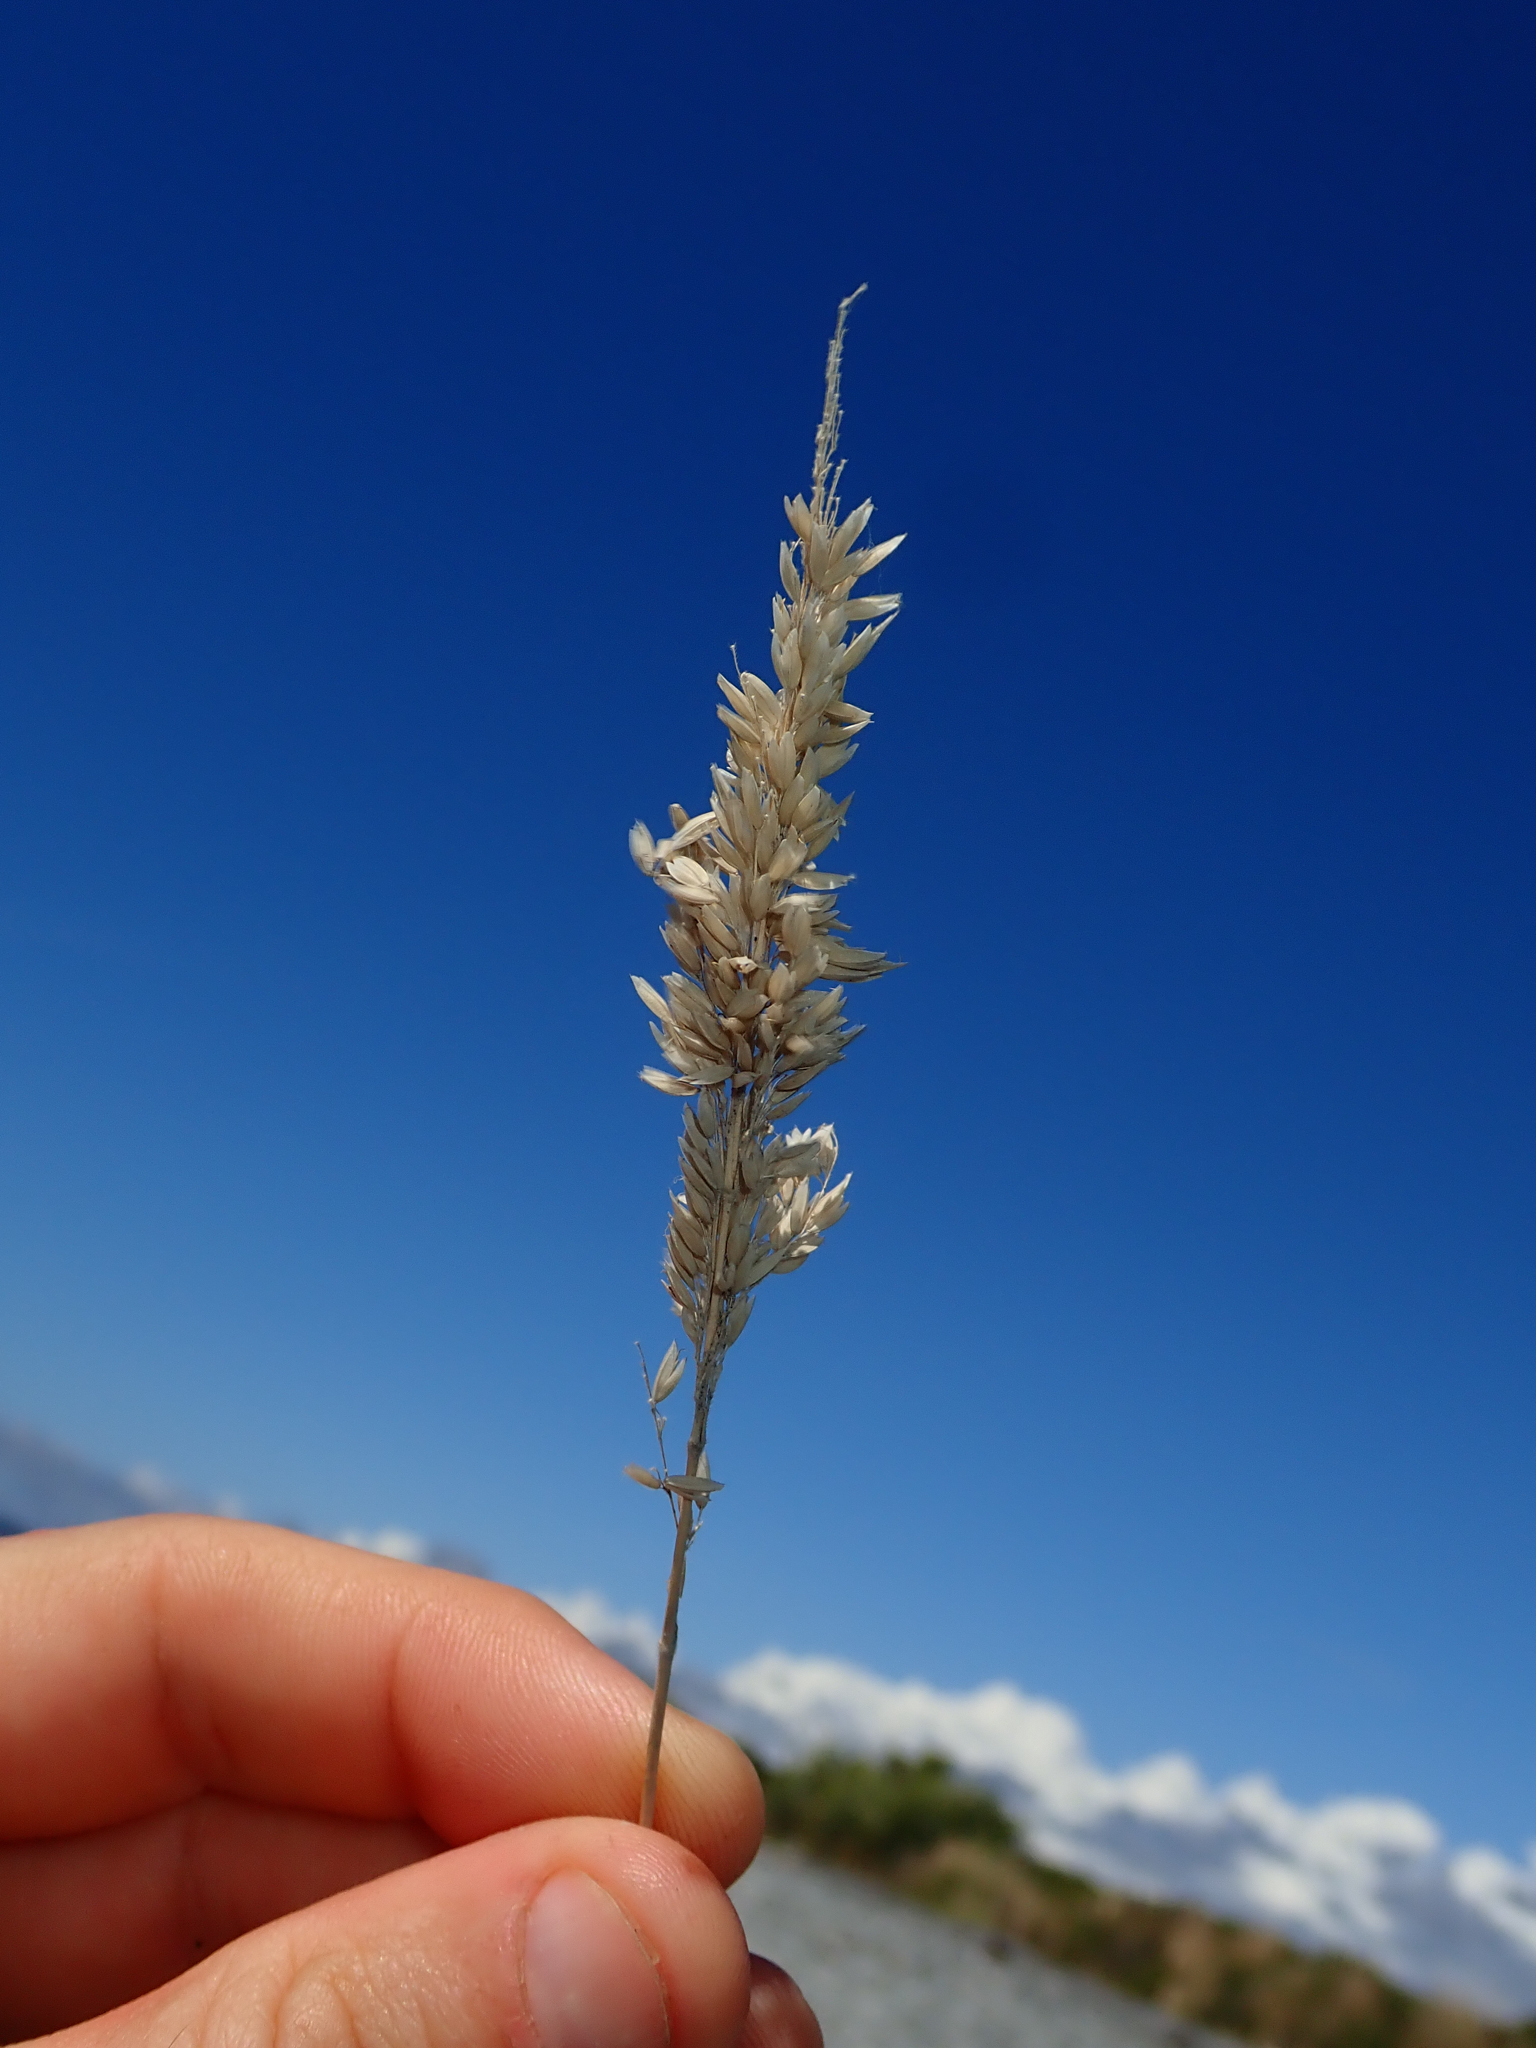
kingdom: Plantae
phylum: Tracheophyta
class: Liliopsida
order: Poales
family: Poaceae
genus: Holcus
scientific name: Holcus lanatus
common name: Yorkshire-fog
